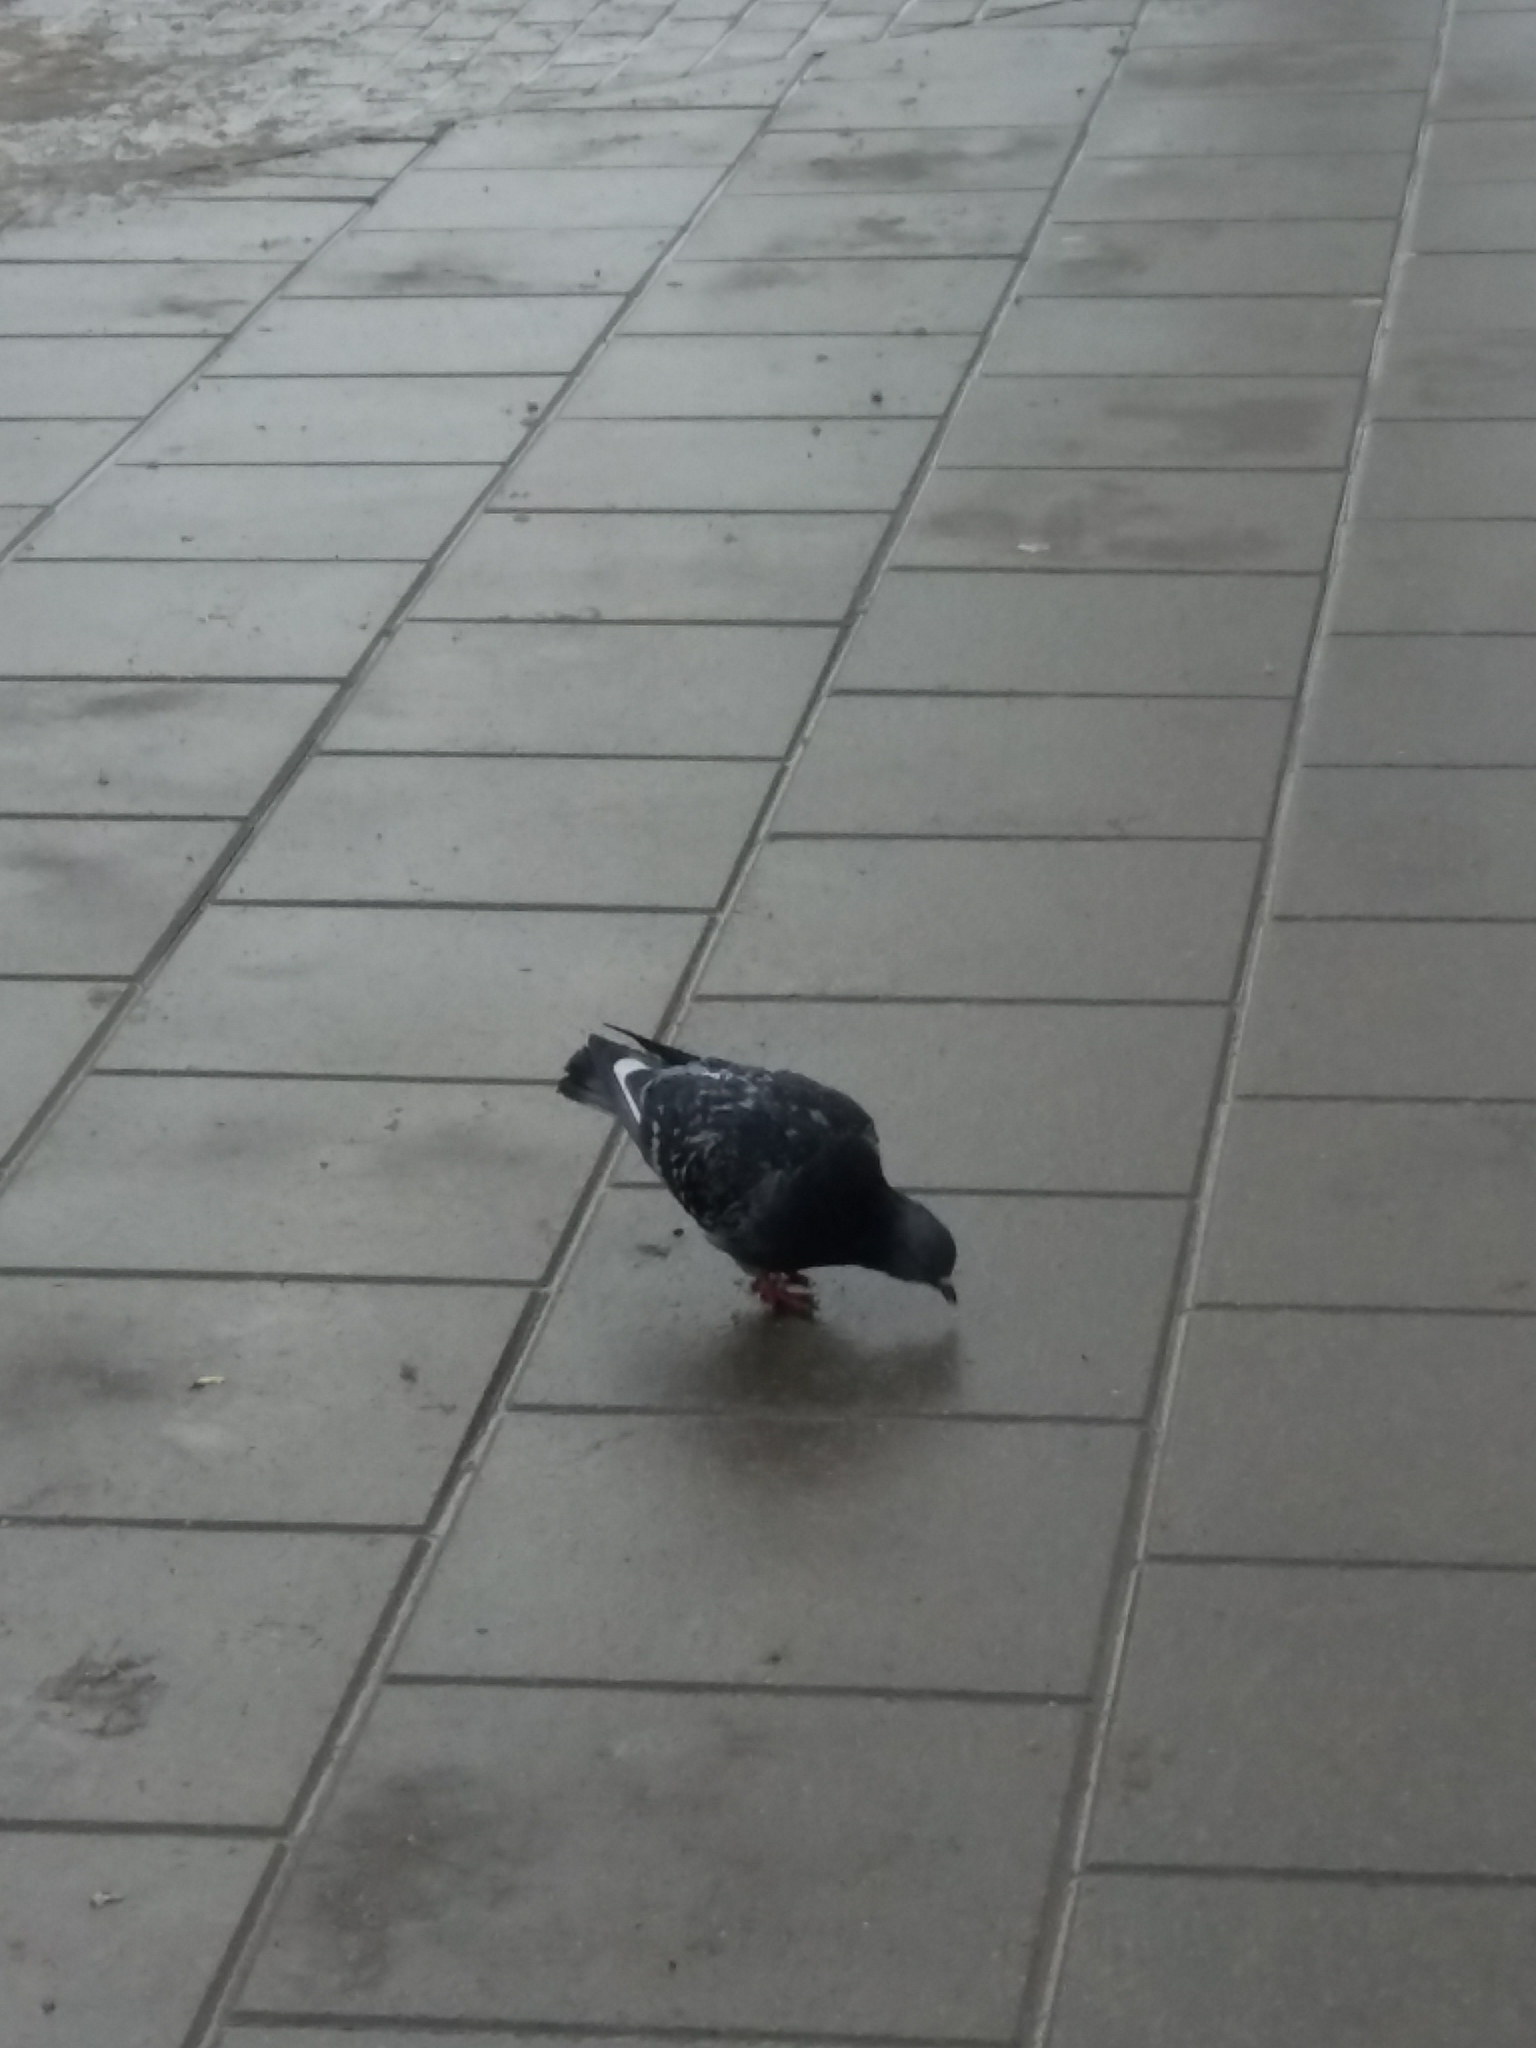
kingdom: Animalia
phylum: Chordata
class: Aves
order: Columbiformes
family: Columbidae
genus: Columba
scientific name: Columba livia
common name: Rock pigeon
